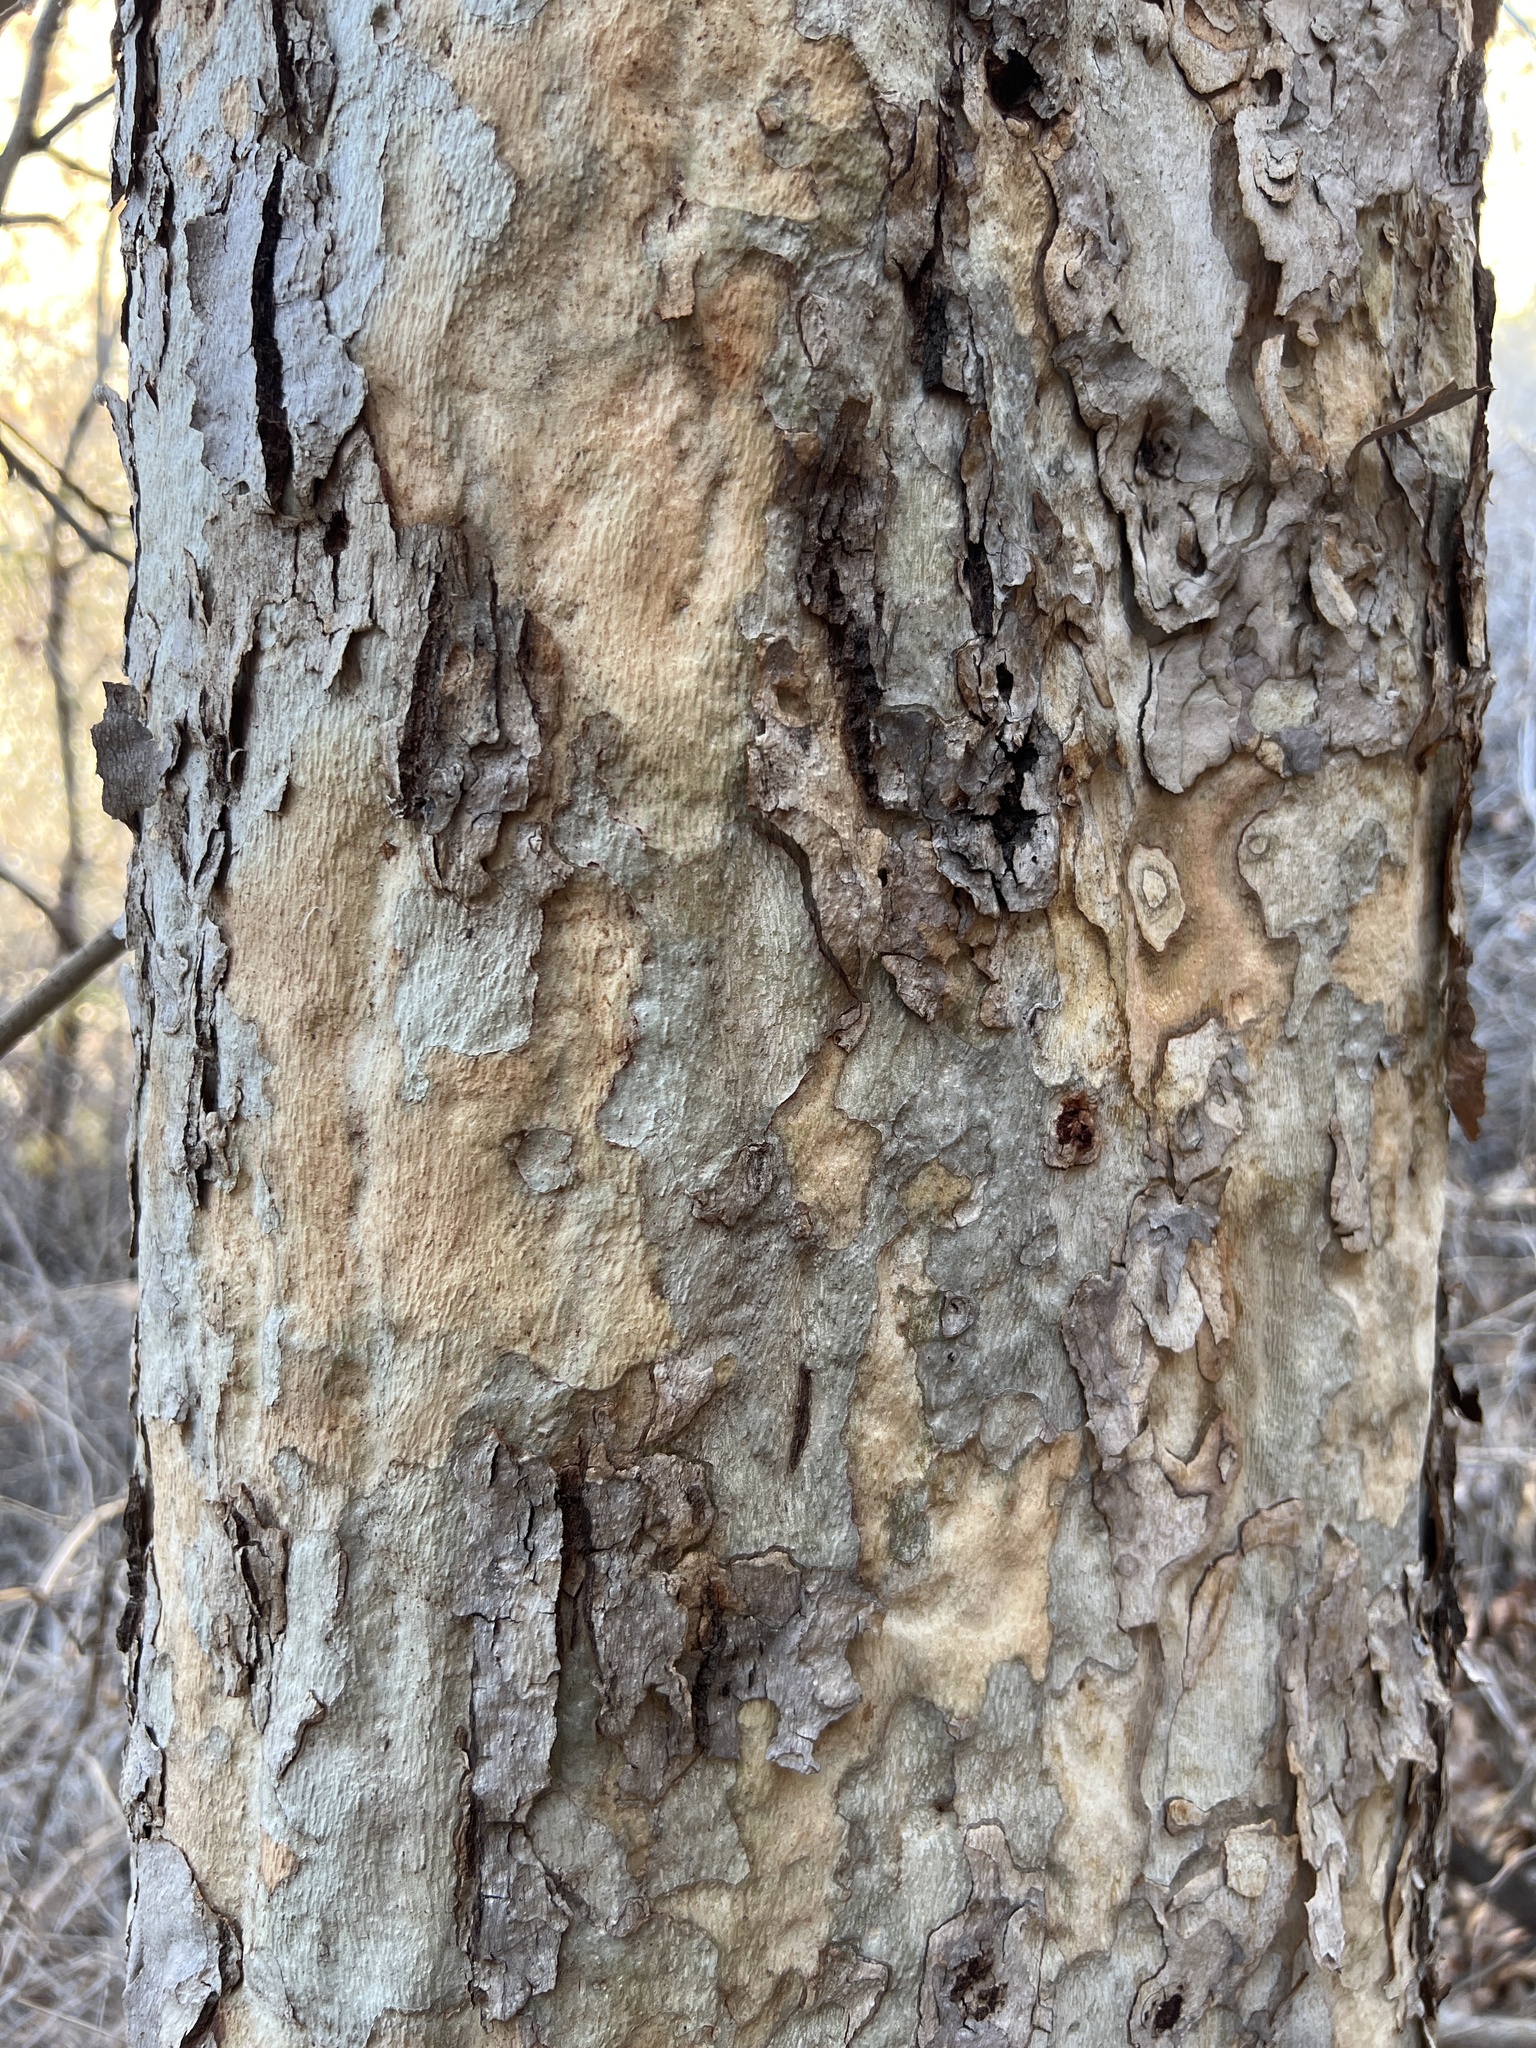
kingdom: Plantae
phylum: Tracheophyta
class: Magnoliopsida
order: Proteales
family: Platanaceae
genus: Platanus
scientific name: Platanus racemosa
